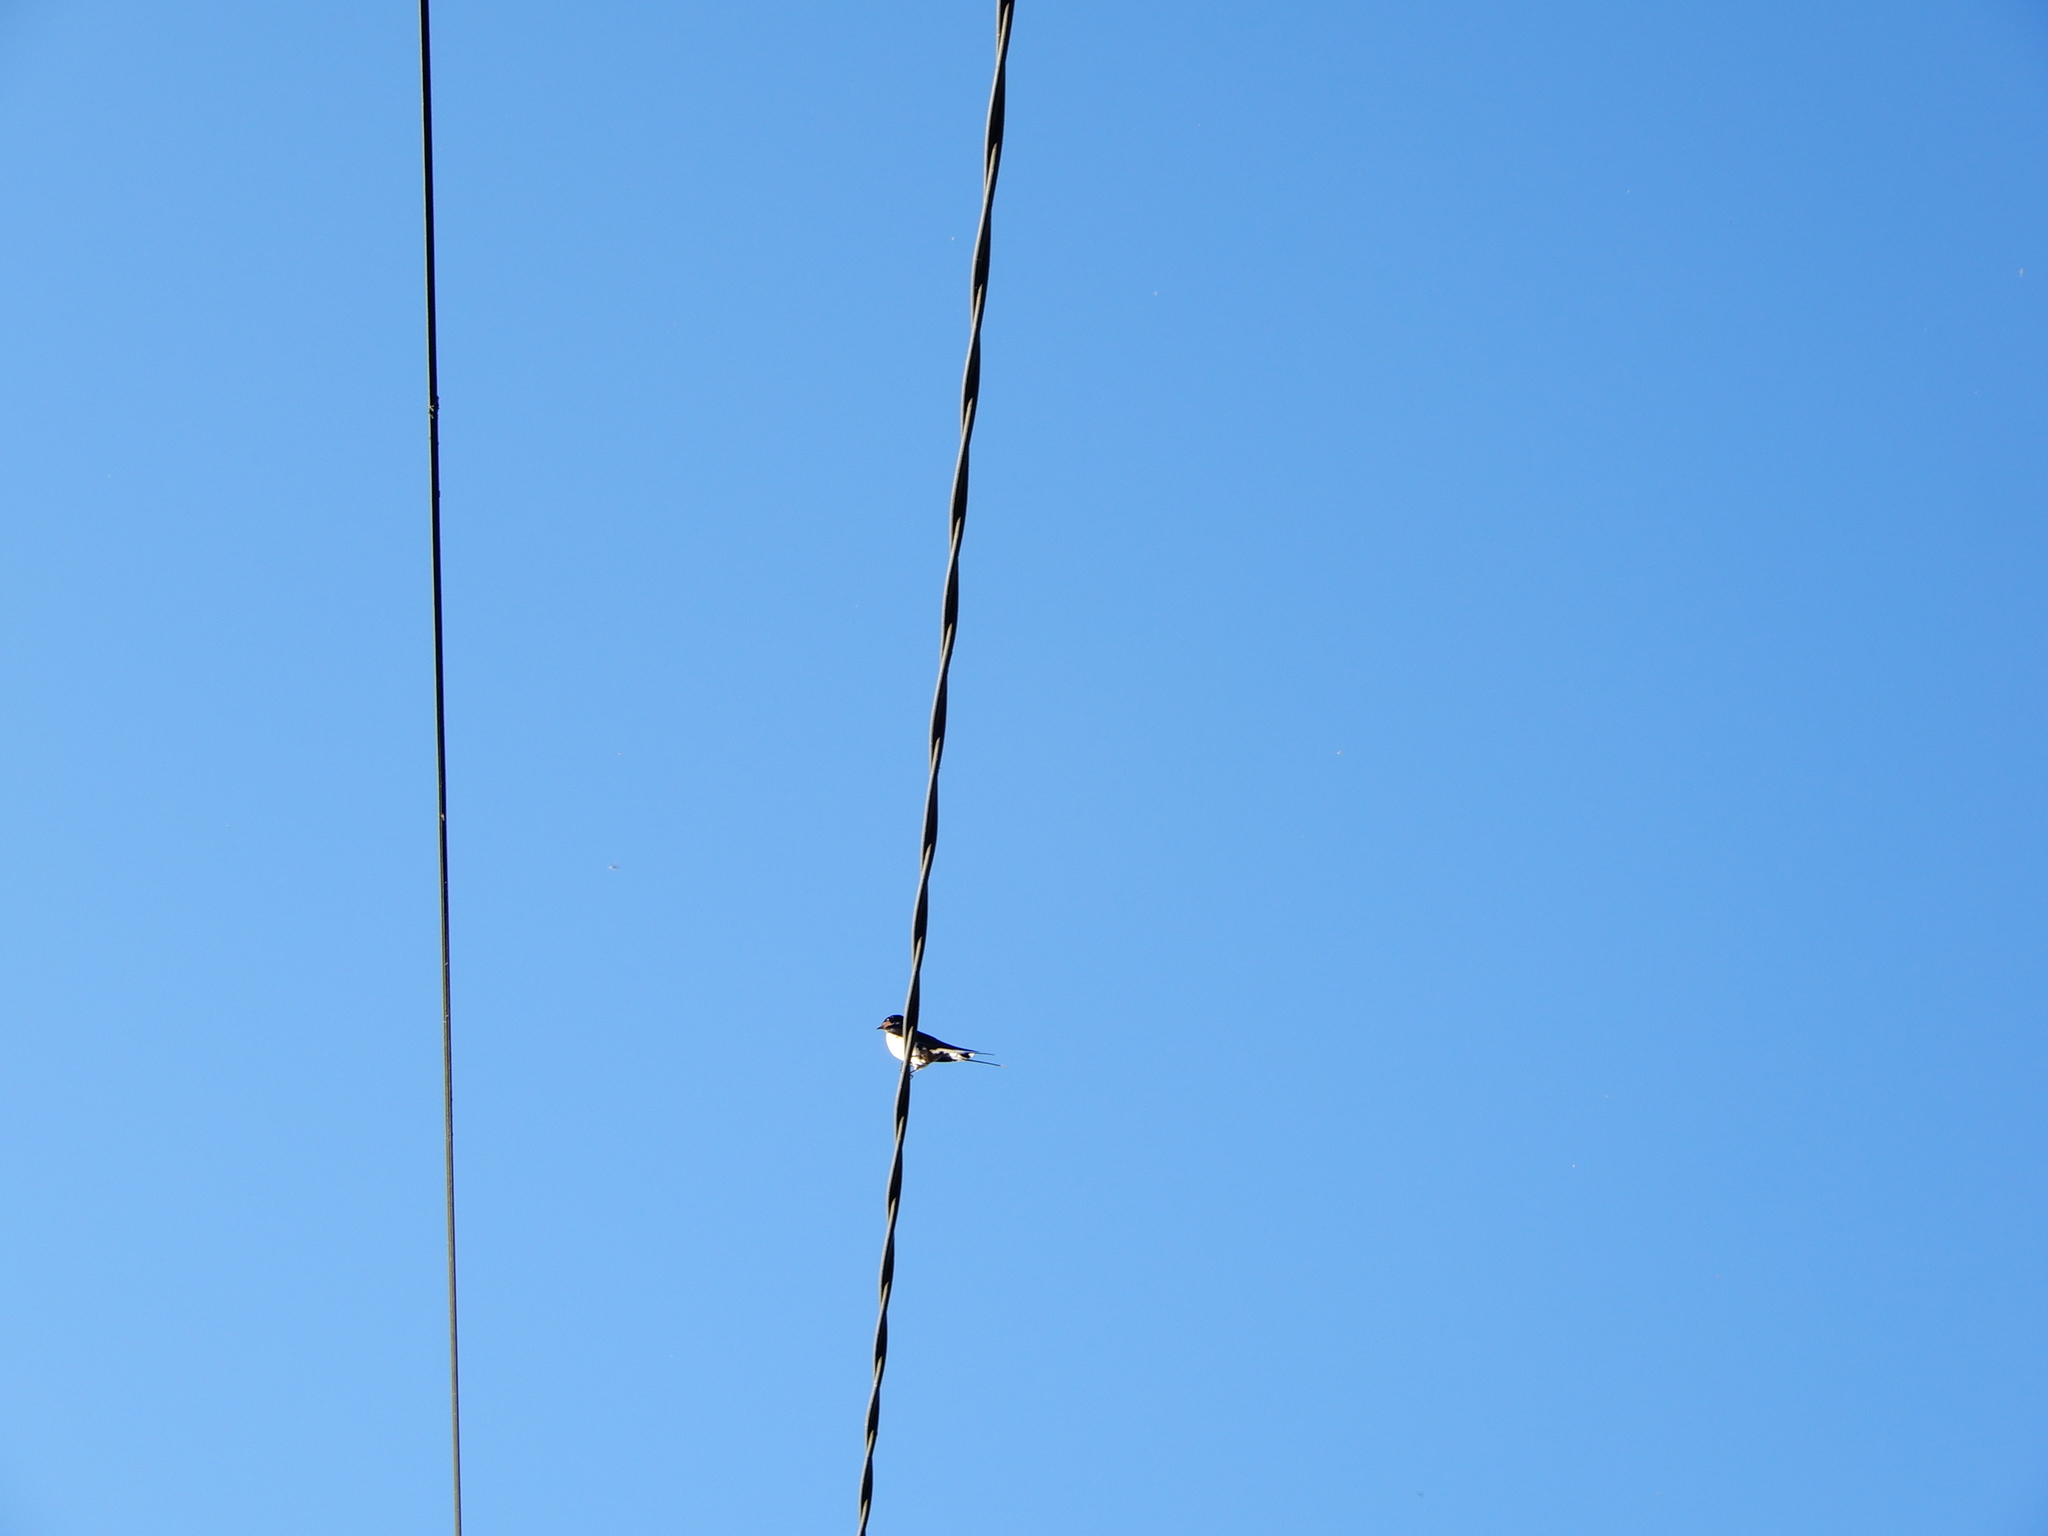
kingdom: Animalia
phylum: Chordata
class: Aves
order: Passeriformes
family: Hirundinidae
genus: Hirundo
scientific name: Hirundo rustica
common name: Barn swallow
